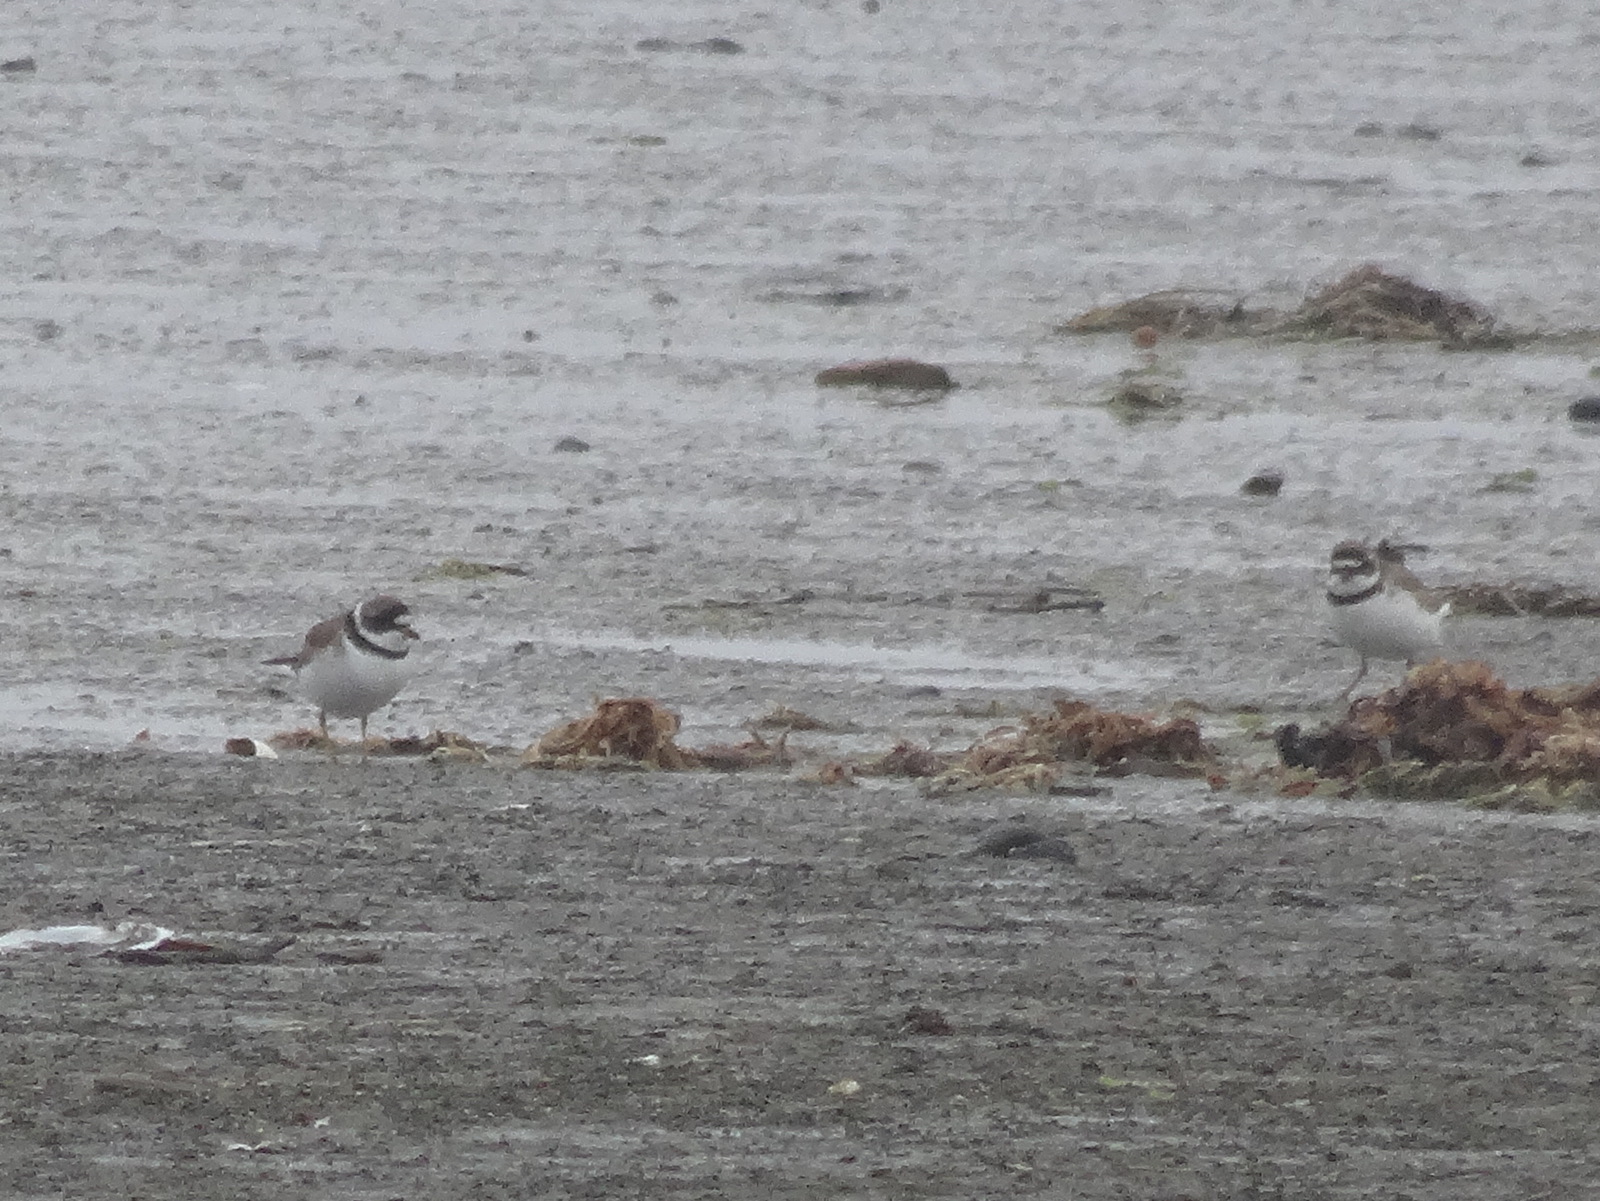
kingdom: Animalia
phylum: Chordata
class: Aves
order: Charadriiformes
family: Charadriidae
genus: Charadrius
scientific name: Charadrius semipalmatus
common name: Semipalmated plover
